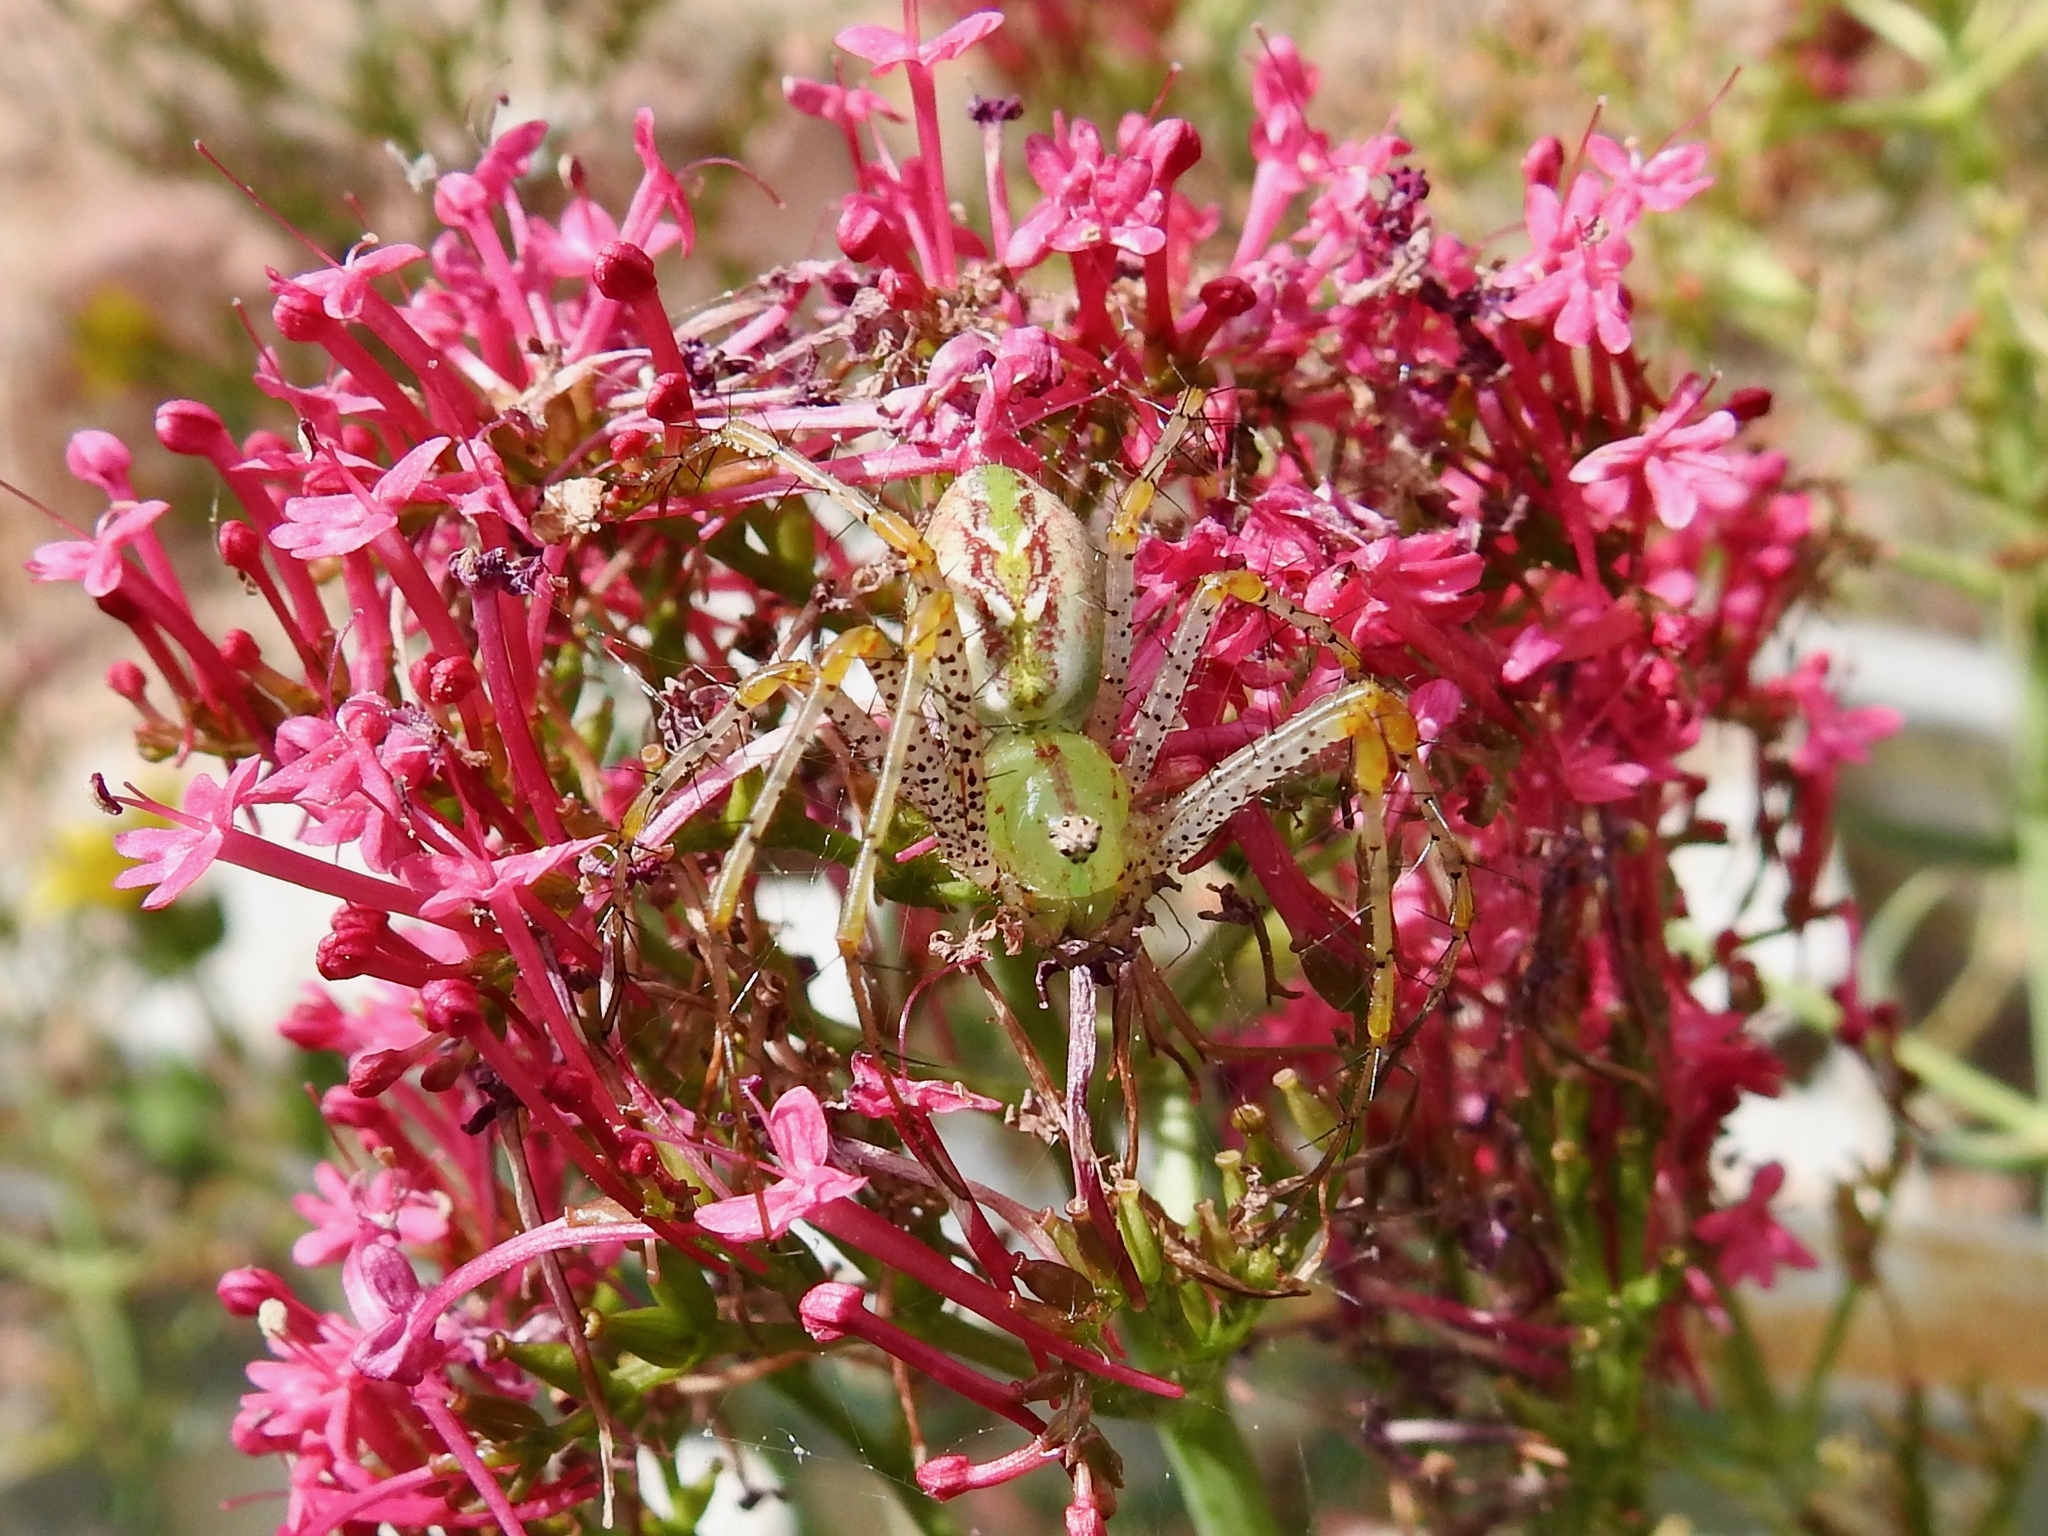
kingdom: Animalia
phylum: Arthropoda
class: Arachnida
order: Araneae
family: Oxyopidae
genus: Peucetia
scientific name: Peucetia viridans
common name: Lynx spiders
